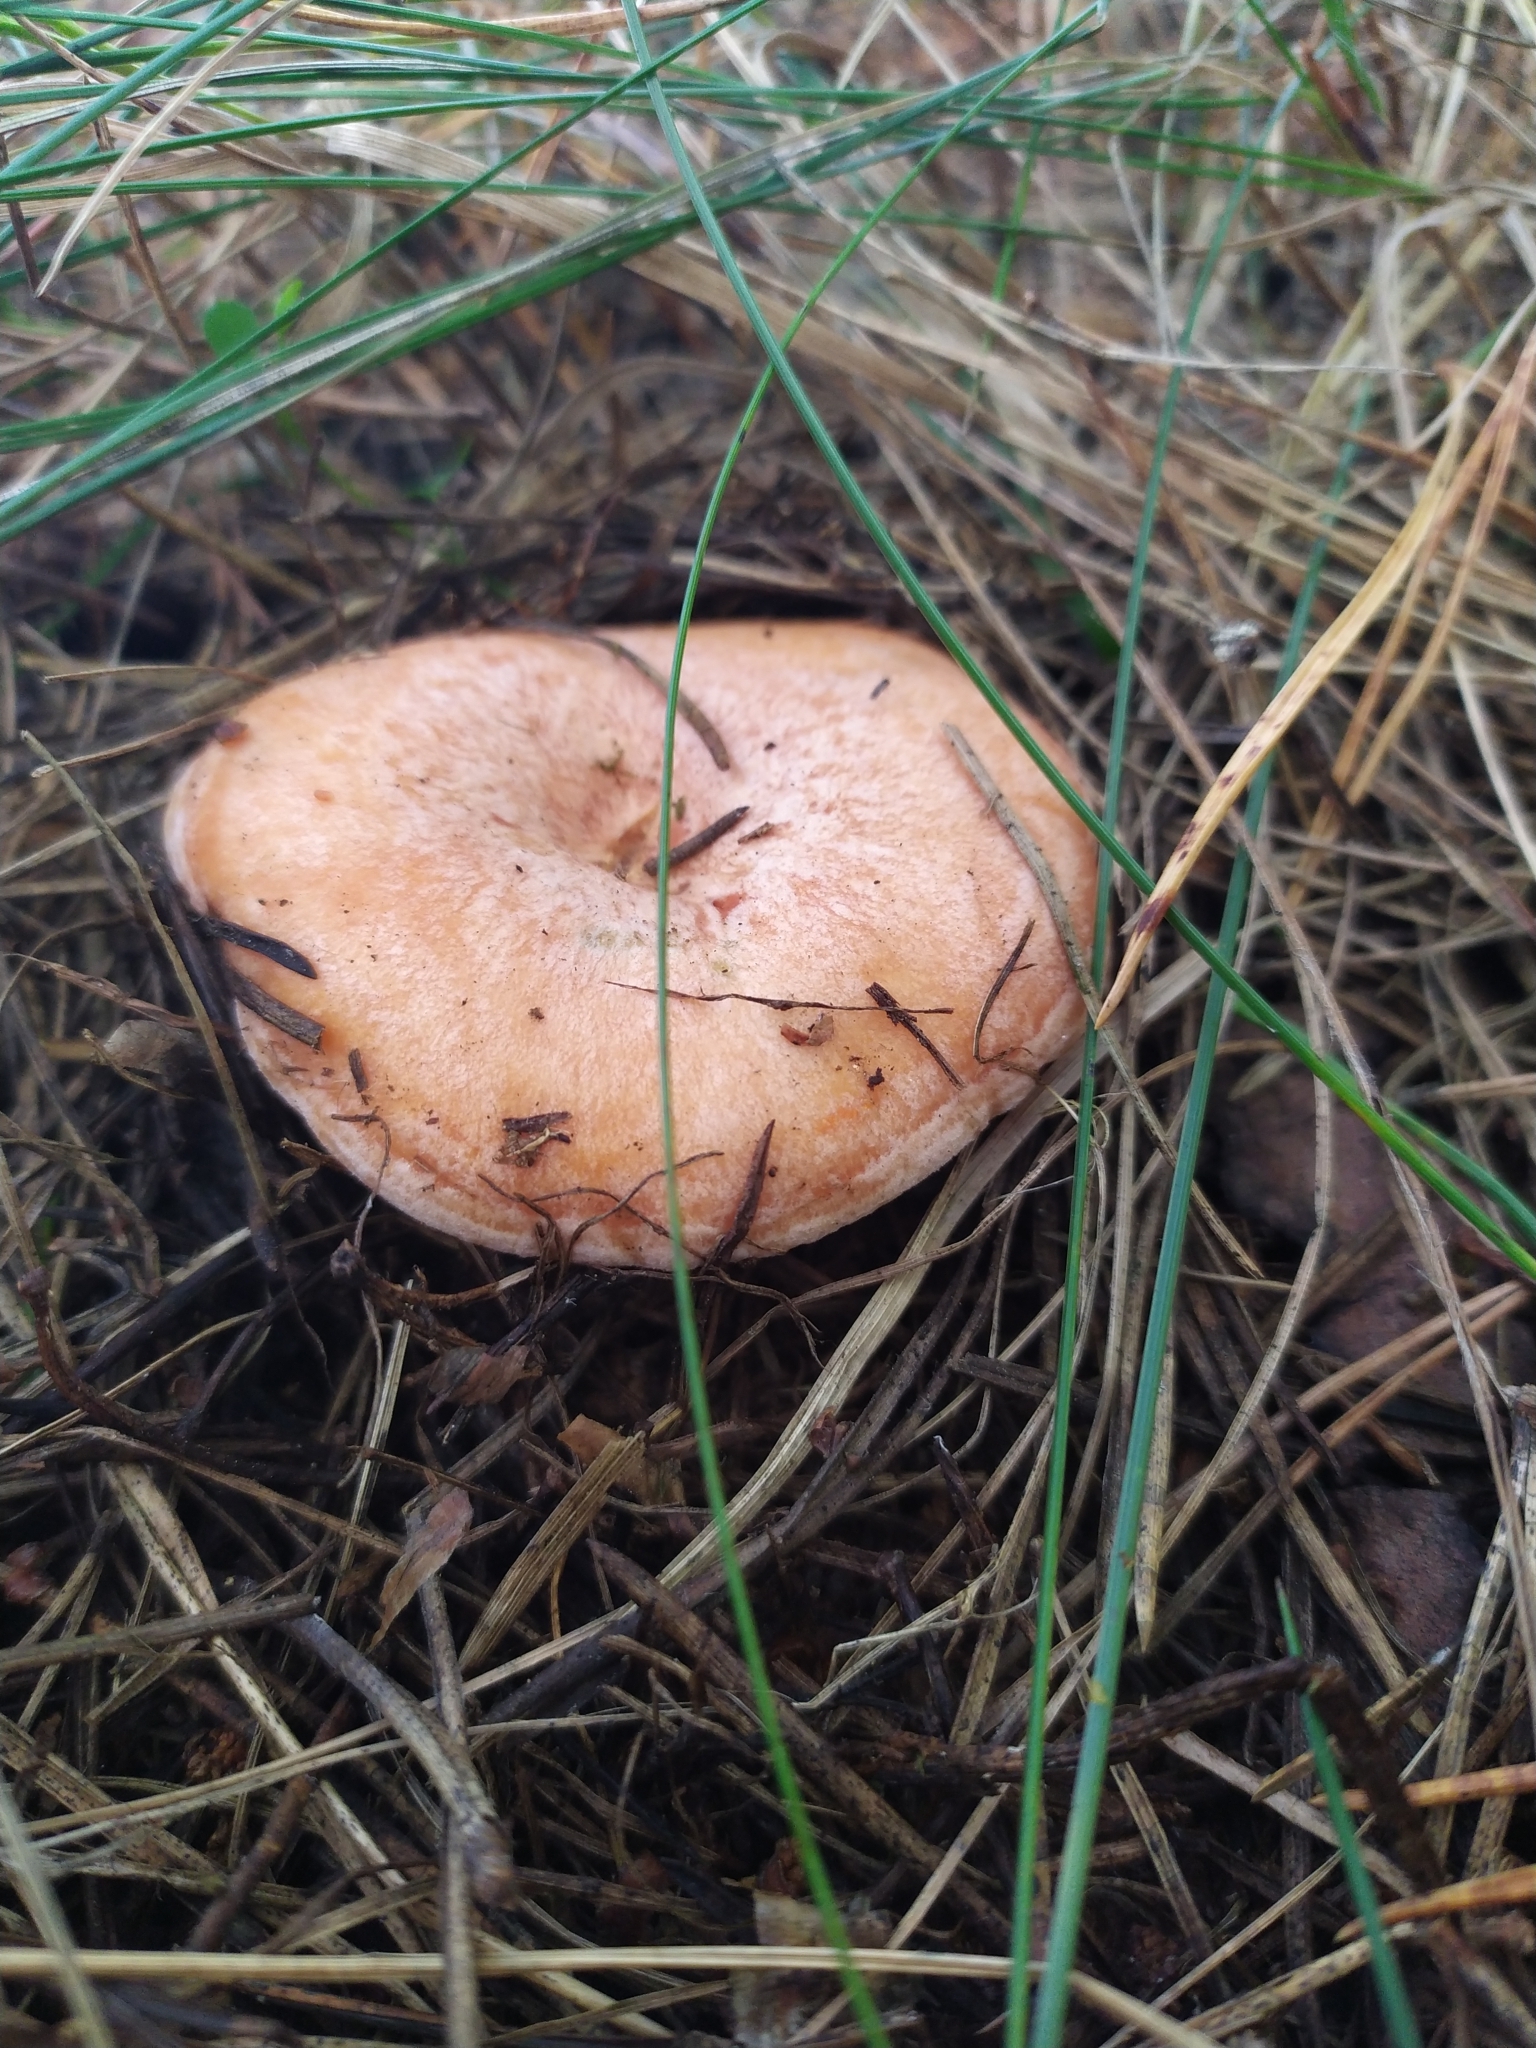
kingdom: Fungi
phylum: Basidiomycota
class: Agaricomycetes
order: Russulales
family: Russulaceae
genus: Lactarius
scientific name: Lactarius deliciosus
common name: Saffron milk-cap
